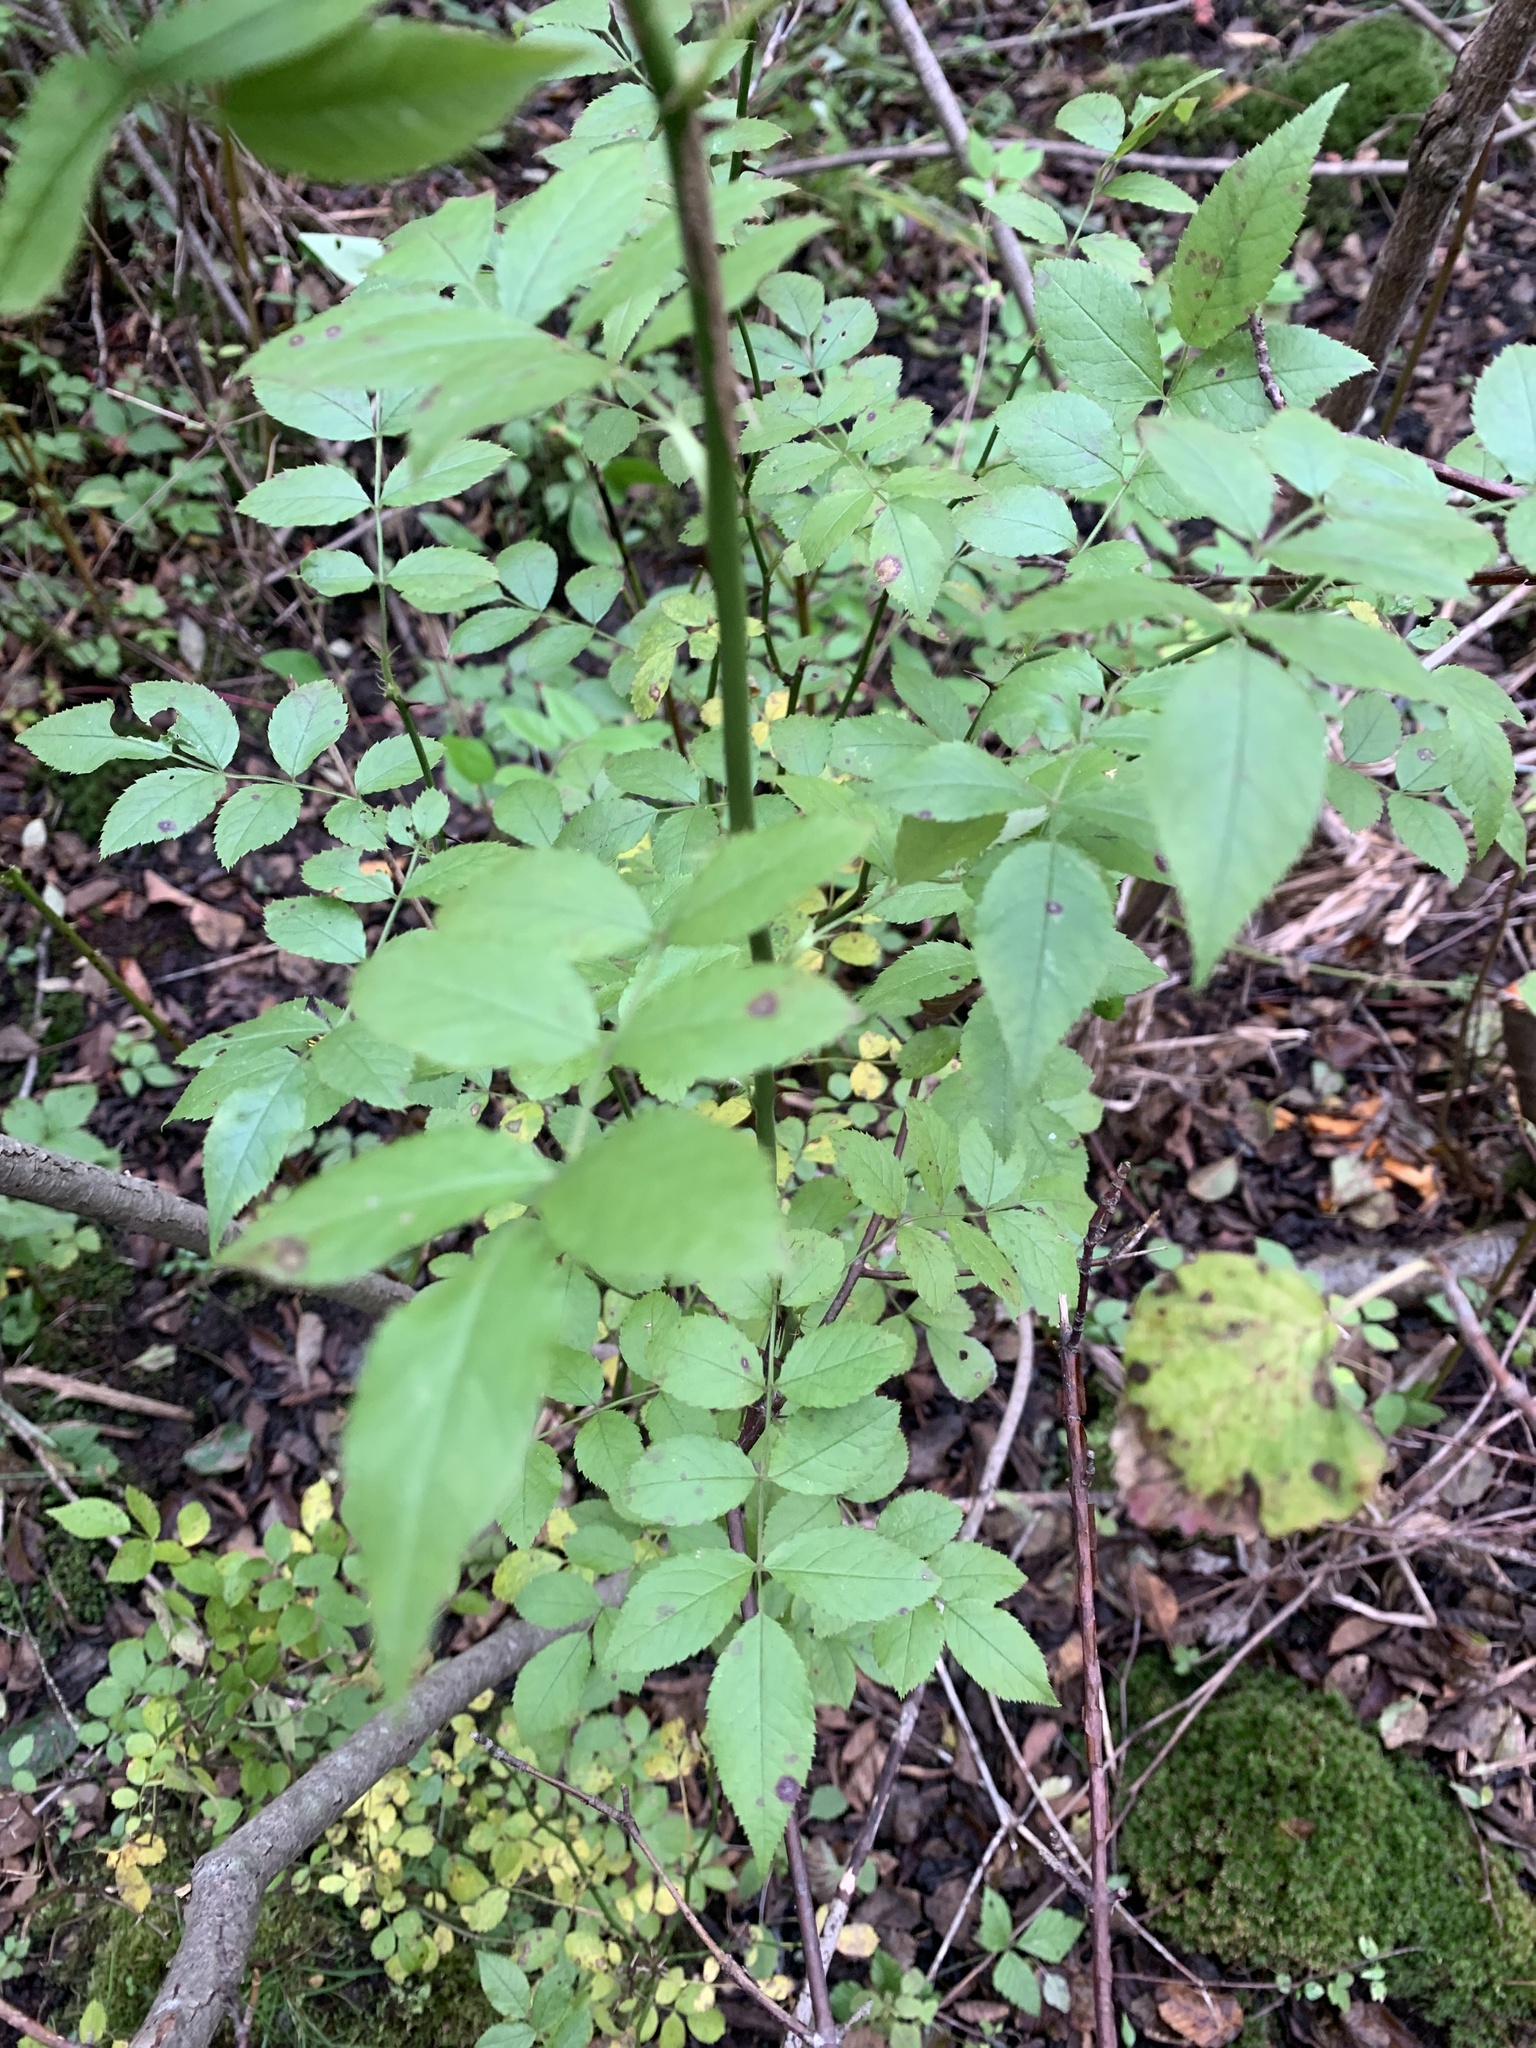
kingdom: Plantae
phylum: Tracheophyta
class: Magnoliopsida
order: Rosales
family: Rosaceae
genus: Rosa
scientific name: Rosa multiflora
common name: Multiflora rose
